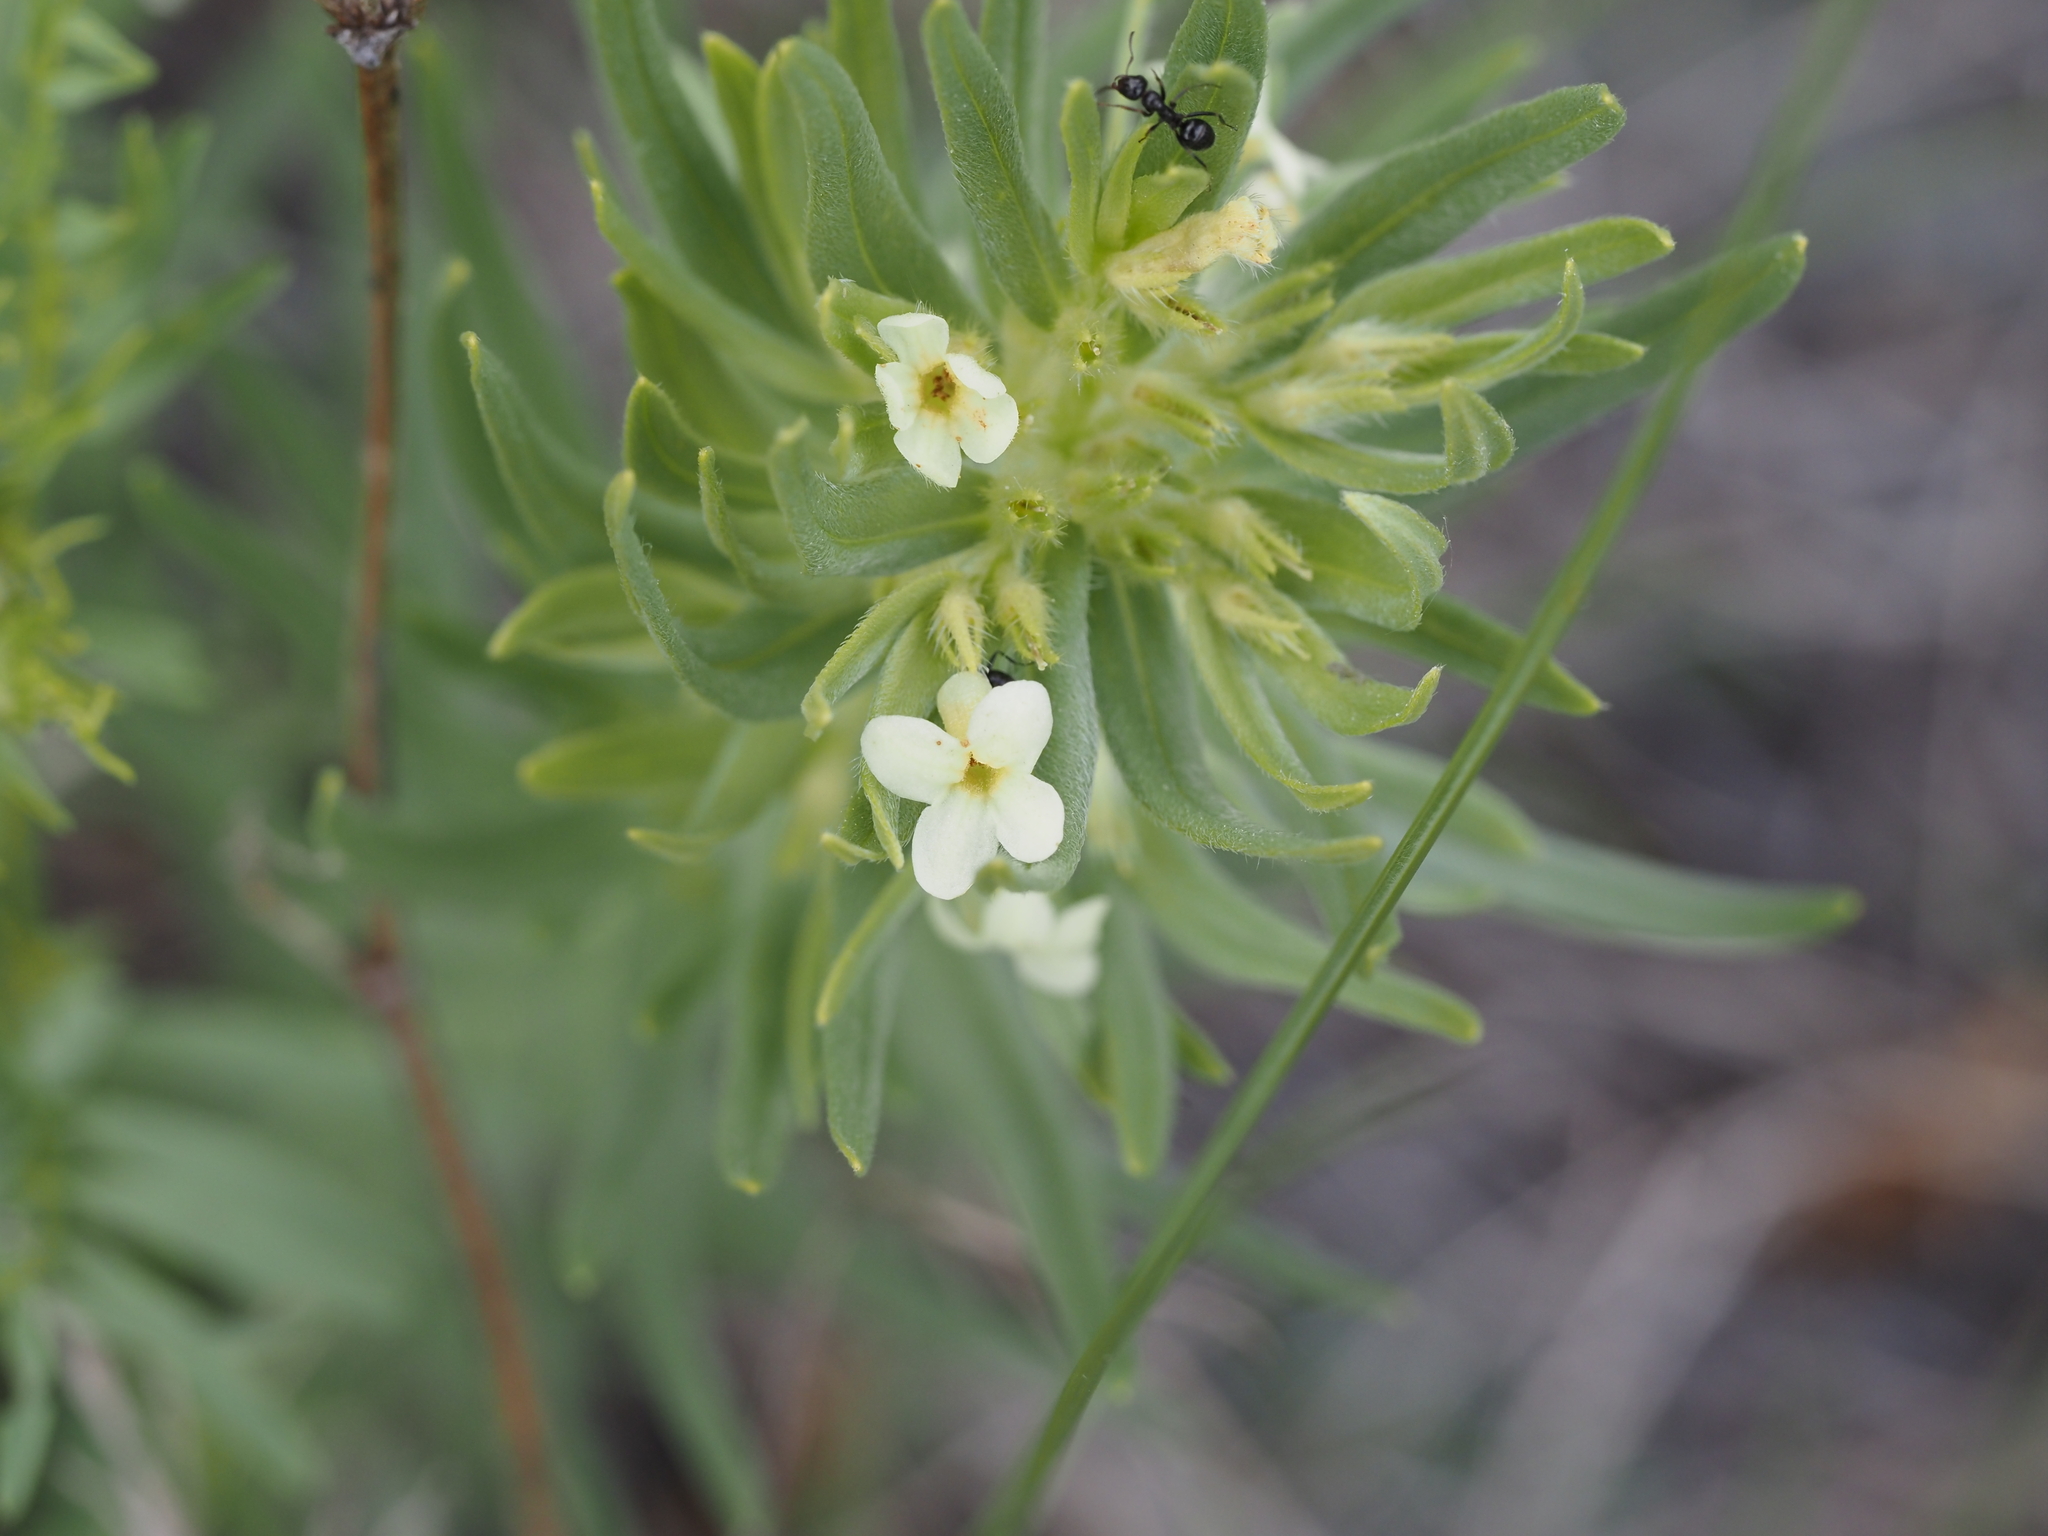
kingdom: Plantae
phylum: Tracheophyta
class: Magnoliopsida
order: Boraginales
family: Boraginaceae
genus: Lithospermum
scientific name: Lithospermum ruderale
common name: Western gromwell
